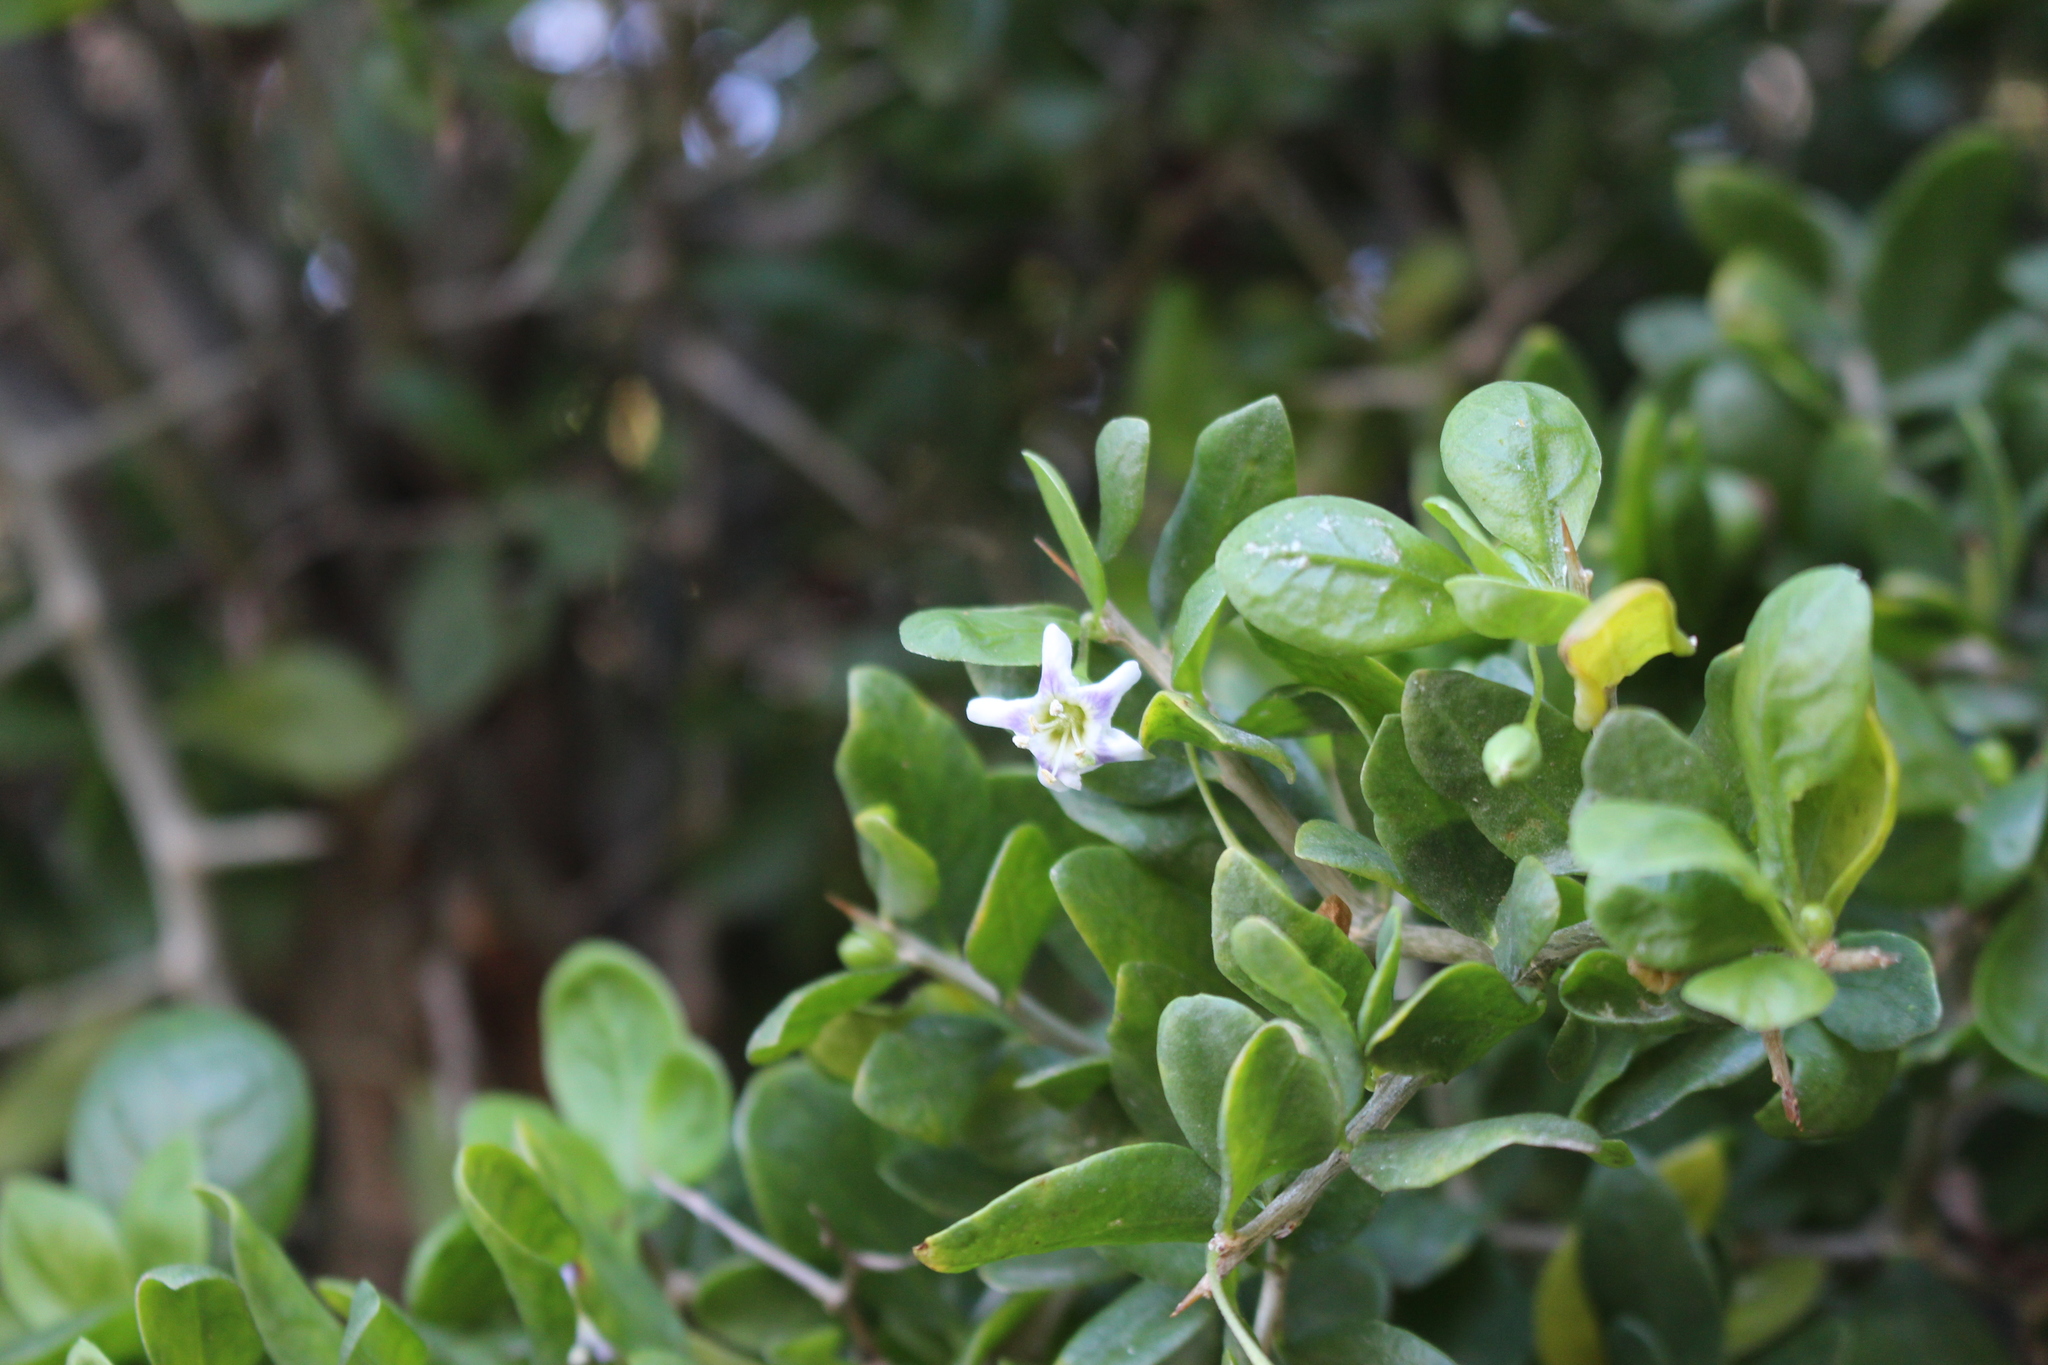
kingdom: Plantae
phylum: Tracheophyta
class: Magnoliopsida
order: Solanales
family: Solanaceae
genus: Lycium
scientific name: Lycium ferocissimum
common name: African boxthorn
